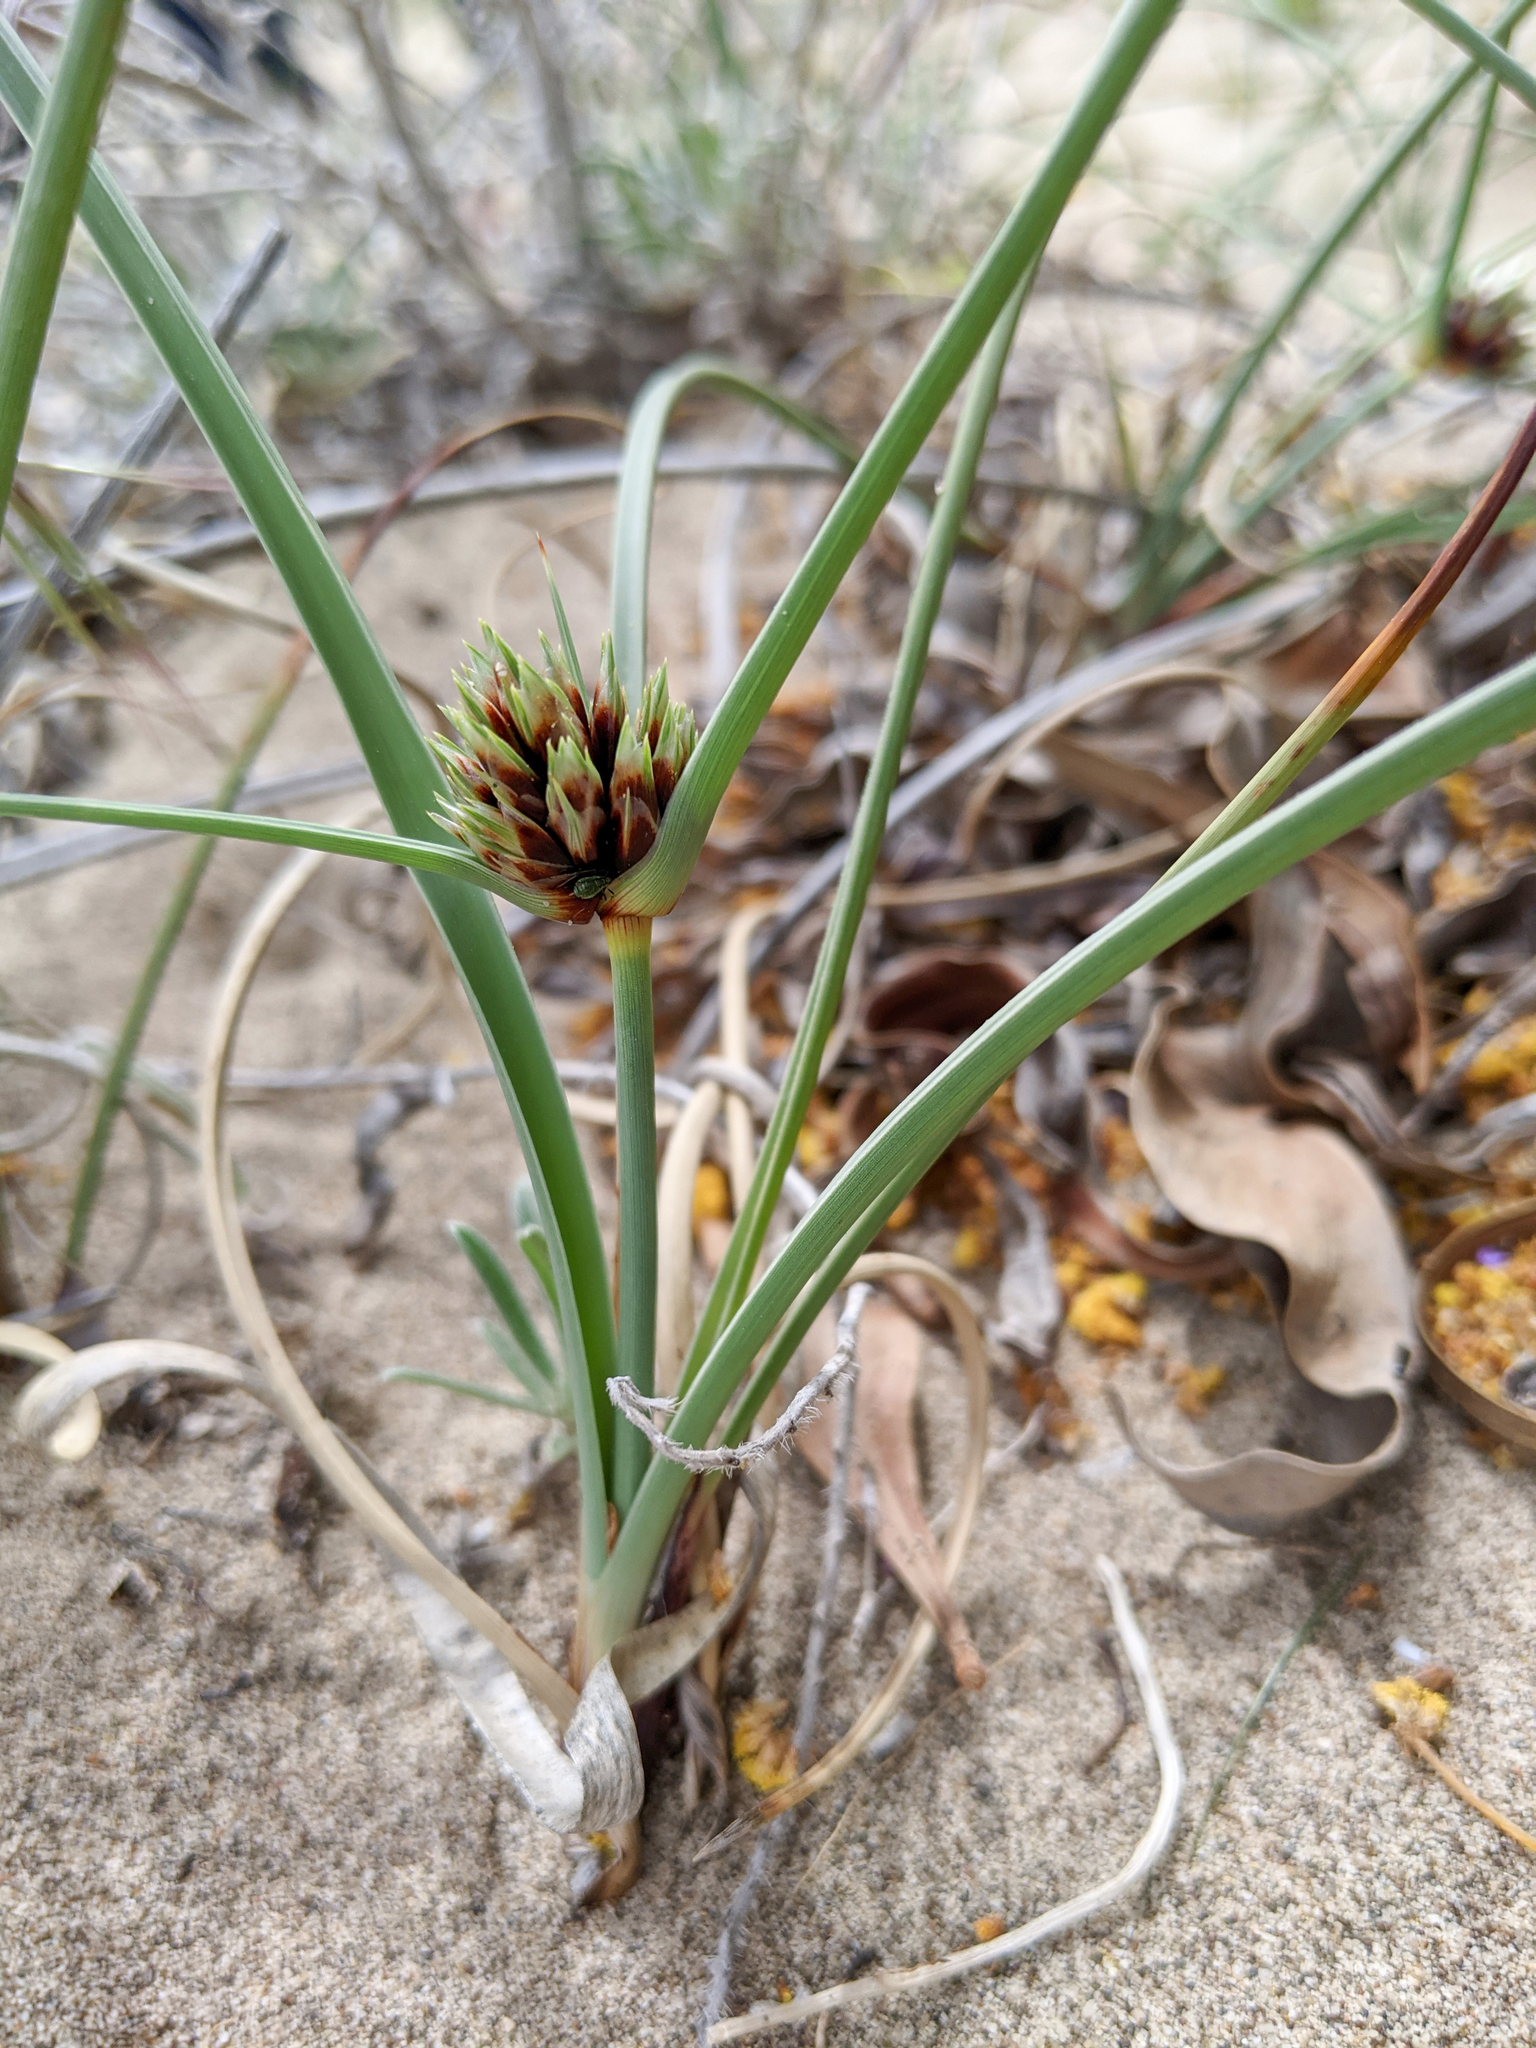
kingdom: Plantae
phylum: Tracheophyta
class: Liliopsida
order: Poales
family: Cyperaceae
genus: Cyperus
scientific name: Cyperus capitatus
